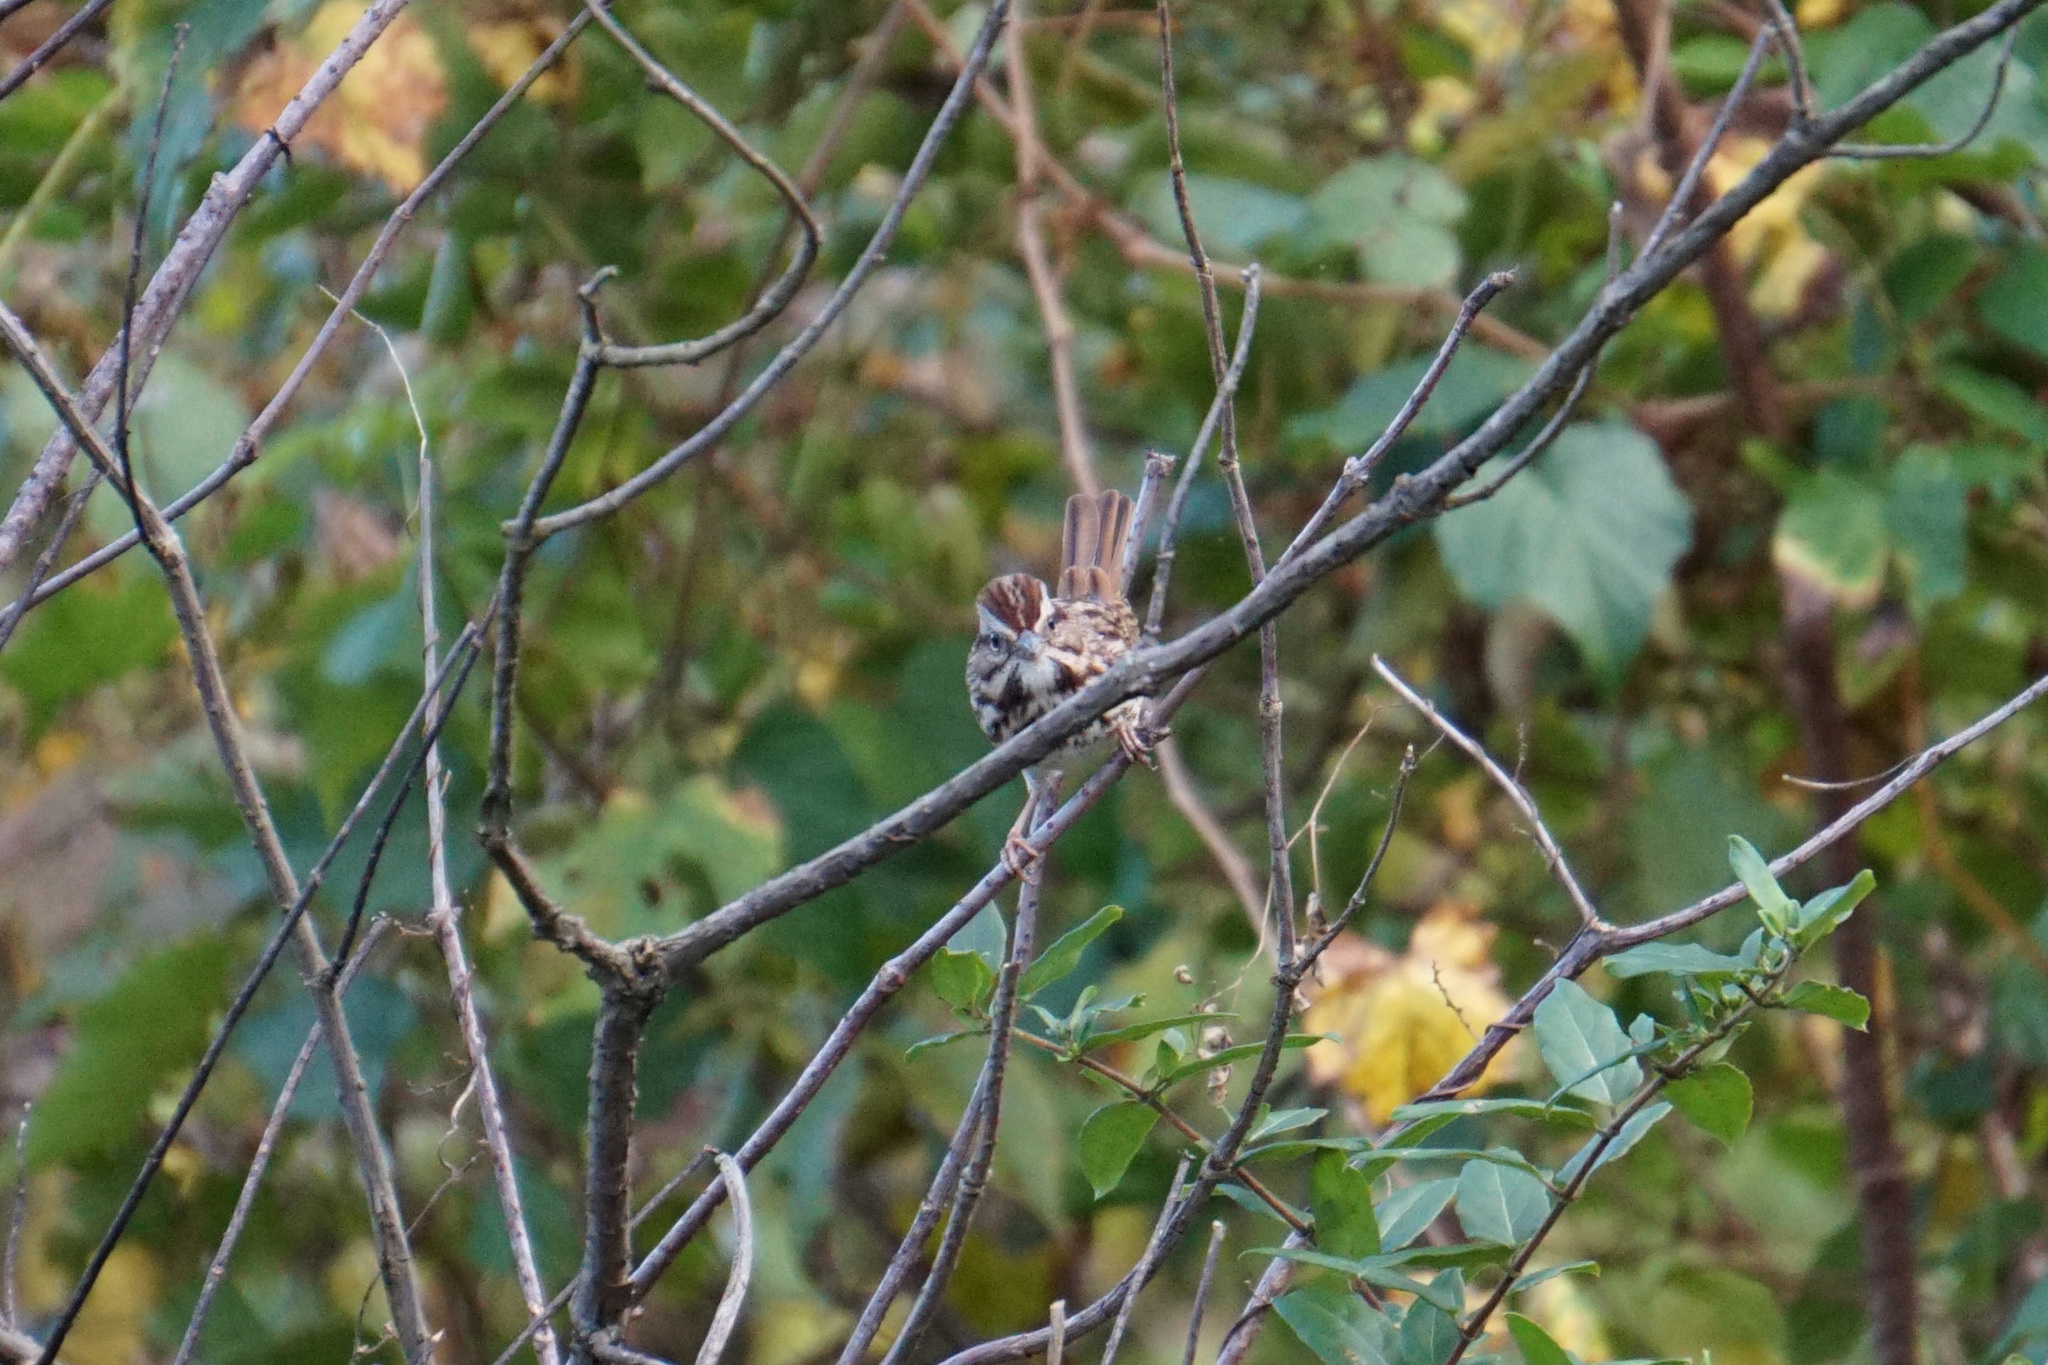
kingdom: Animalia
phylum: Chordata
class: Aves
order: Passeriformes
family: Passerellidae
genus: Melospiza
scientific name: Melospiza melodia
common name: Song sparrow
